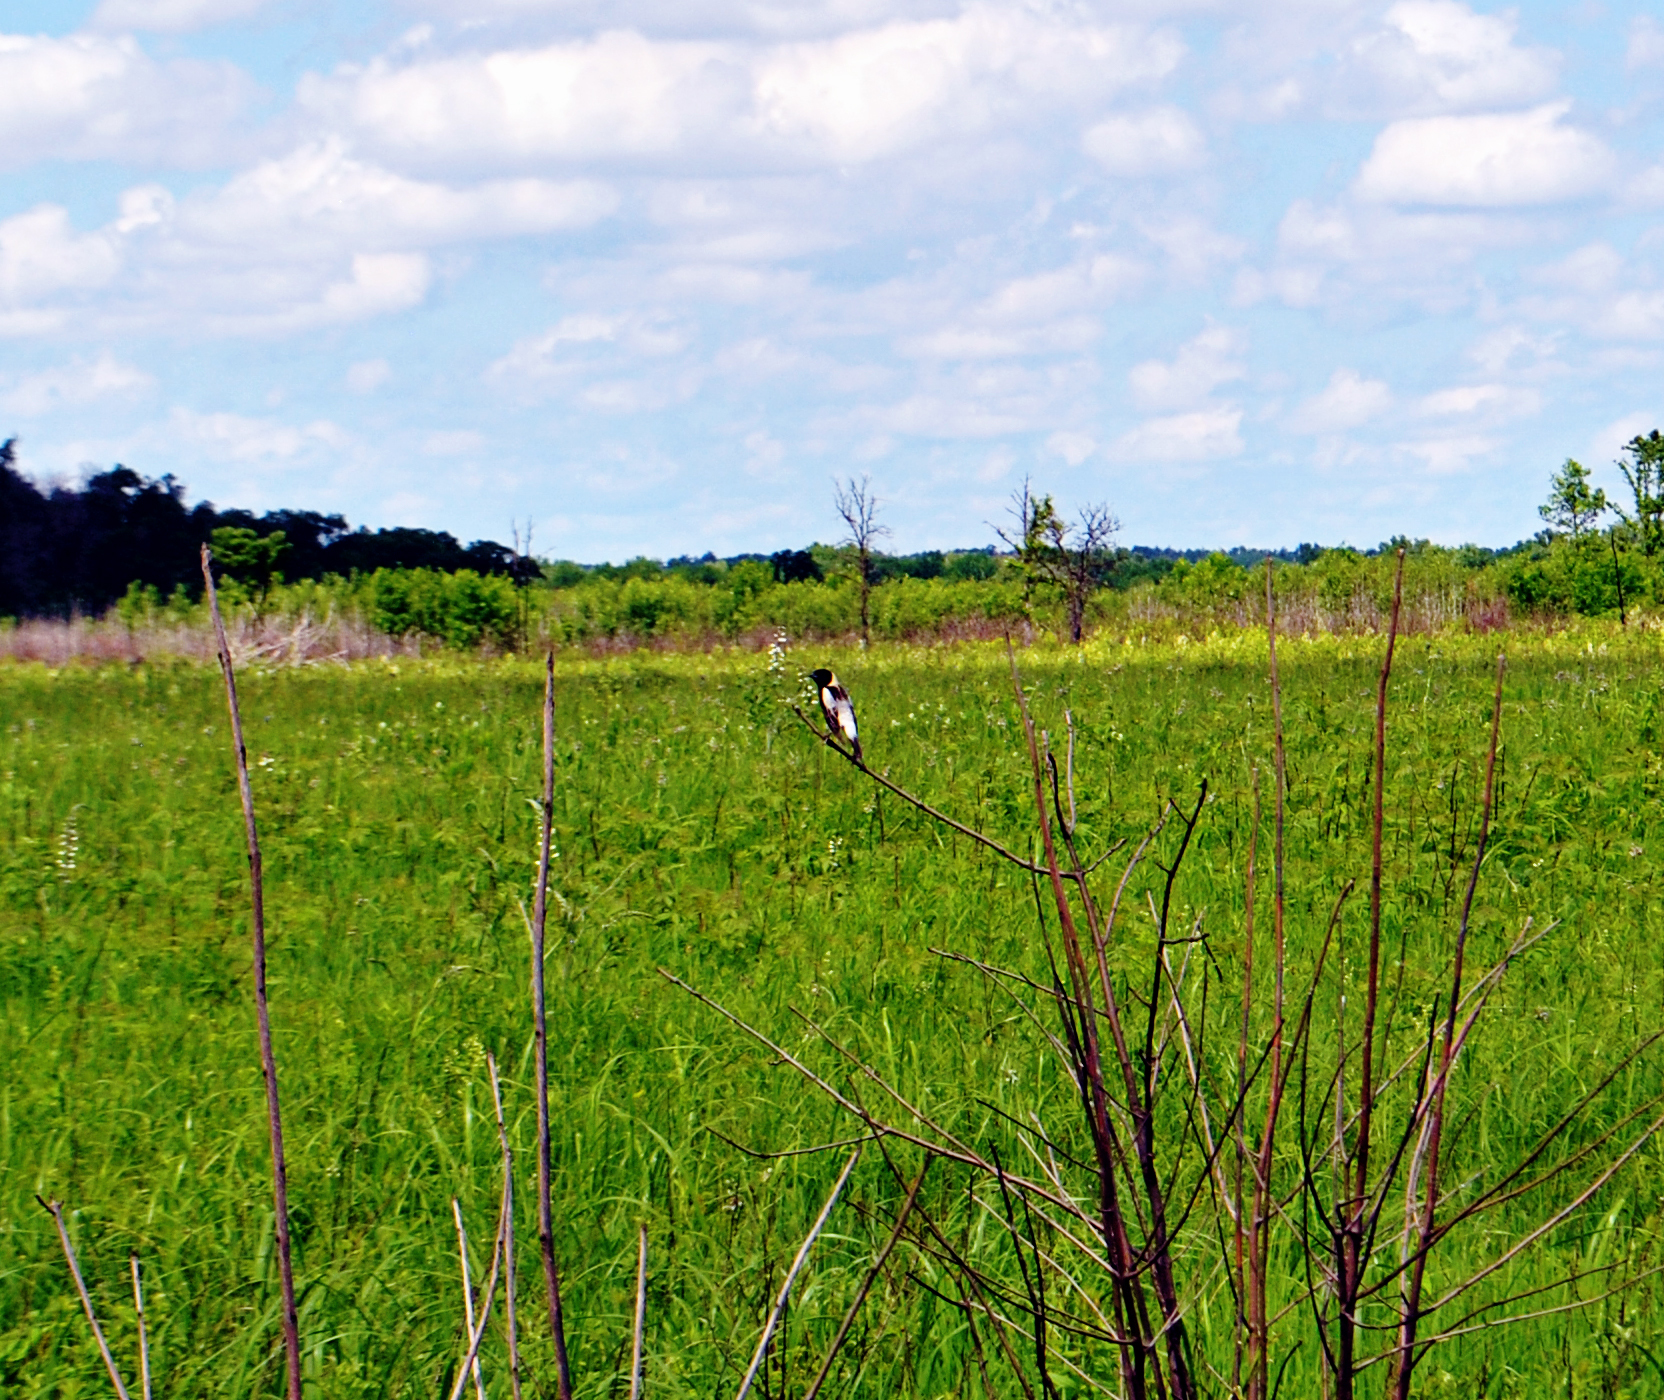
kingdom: Animalia
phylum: Chordata
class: Aves
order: Passeriformes
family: Icteridae
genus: Dolichonyx
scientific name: Dolichonyx oryzivorus
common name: Bobolink
